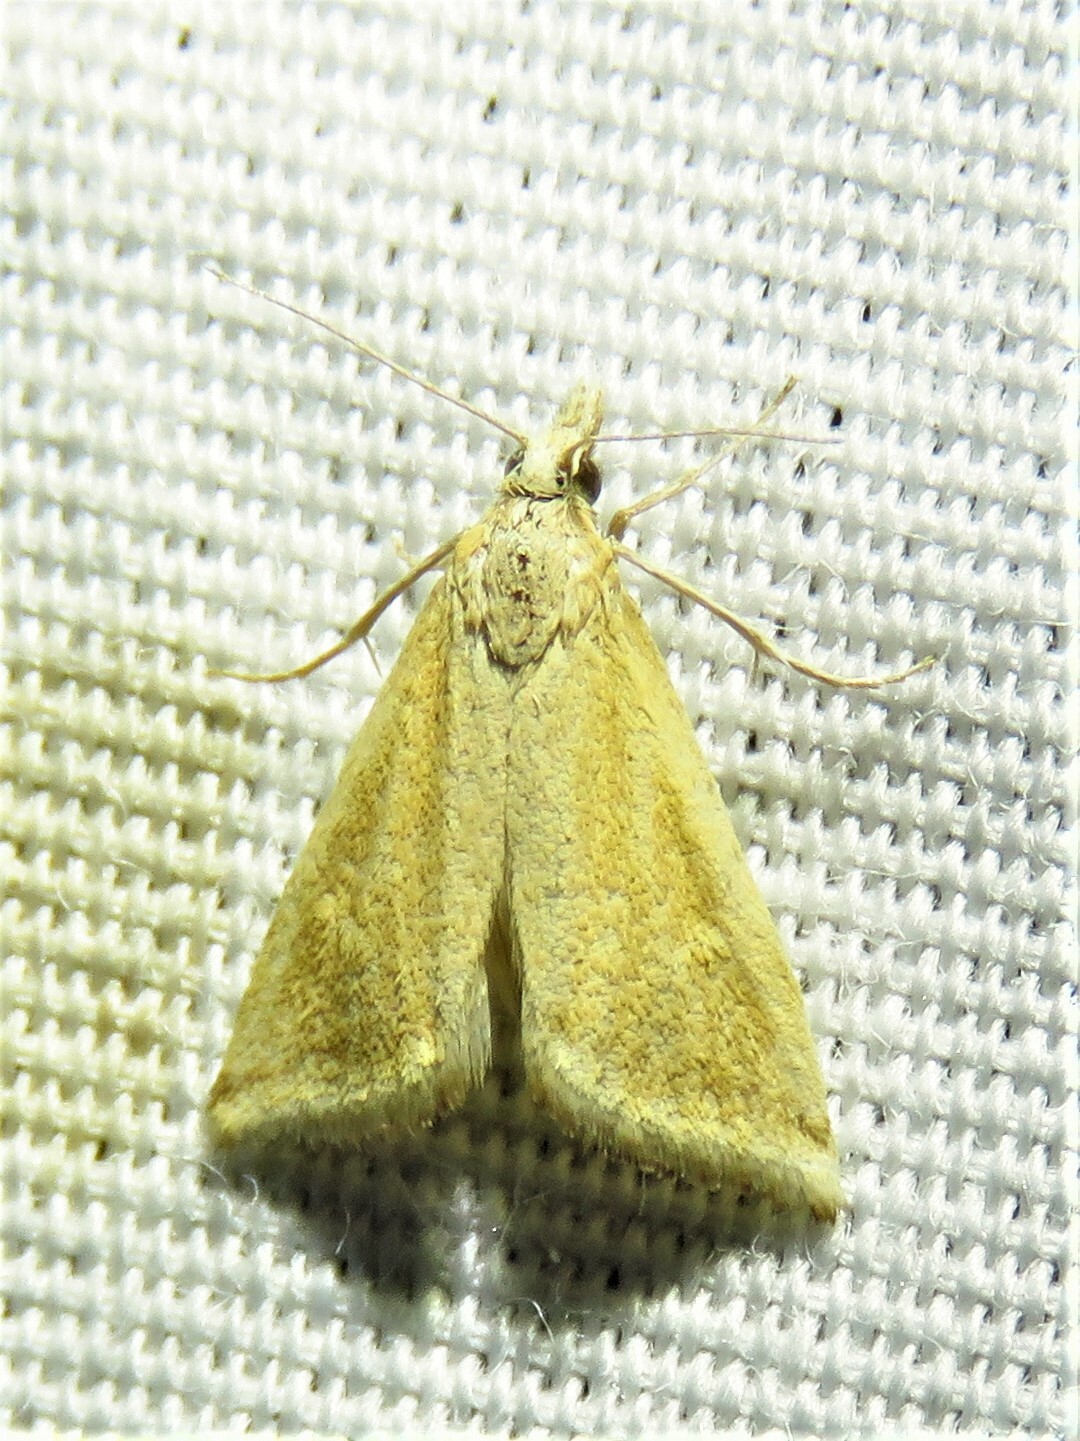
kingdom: Animalia
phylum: Arthropoda
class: Insecta
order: Lepidoptera
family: Crambidae
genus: Microtheoris
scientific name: Microtheoris vibicalis
